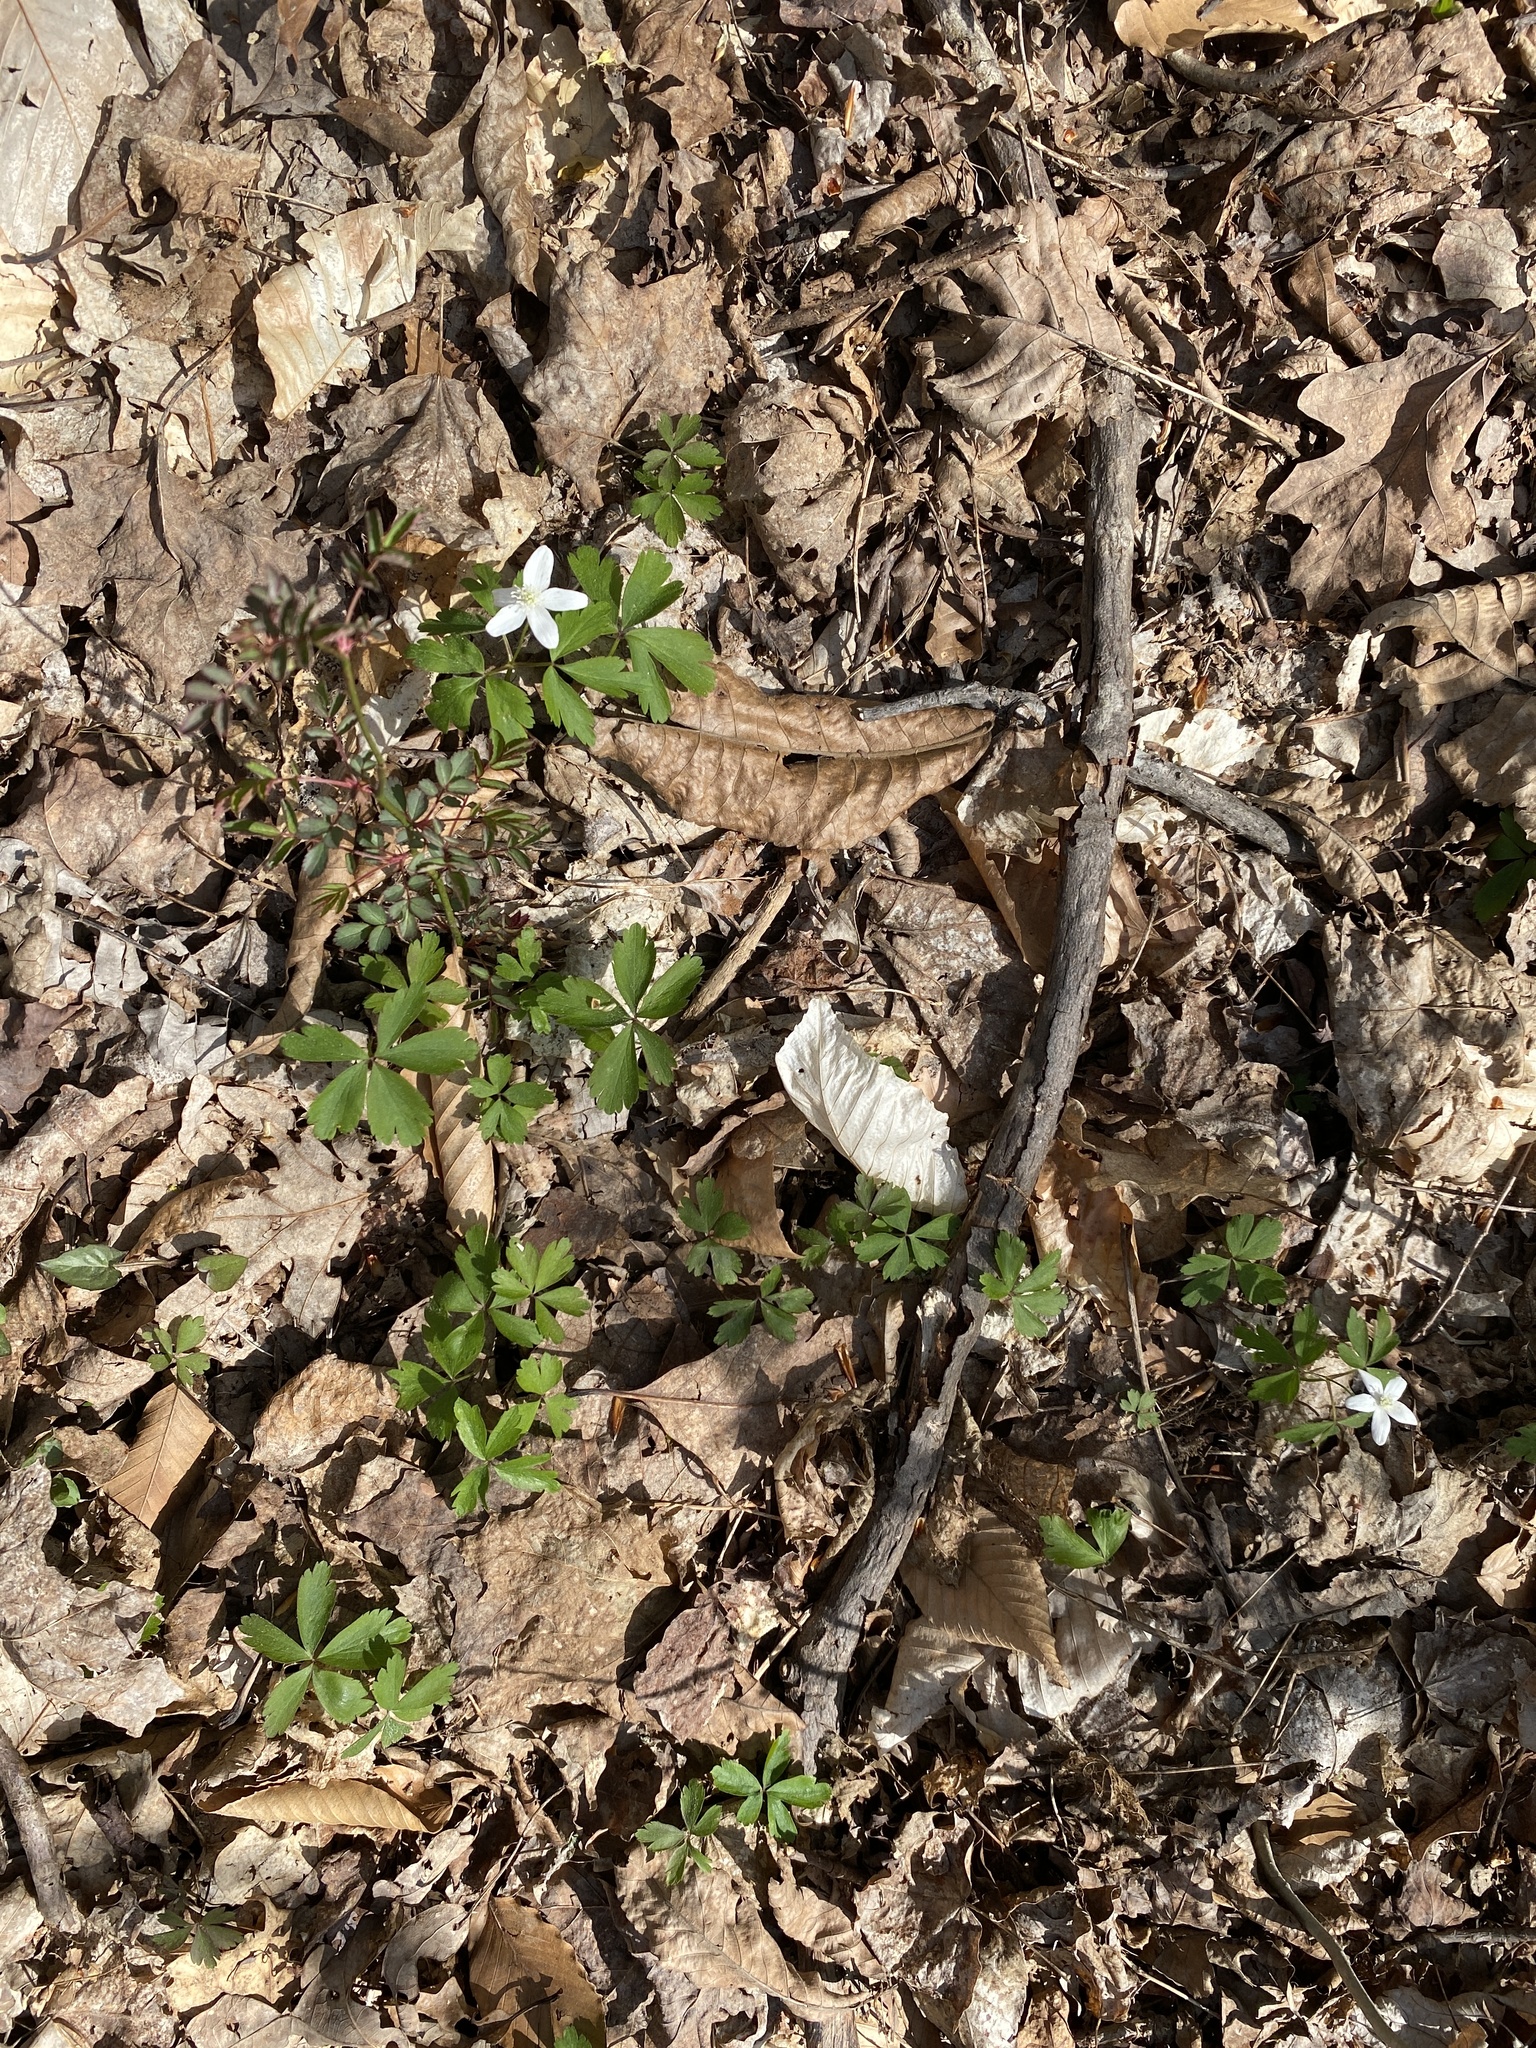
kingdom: Plantae
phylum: Tracheophyta
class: Magnoliopsida
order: Ranunculales
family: Ranunculaceae
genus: Anemone
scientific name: Anemone quinquefolia
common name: Wood anemone
